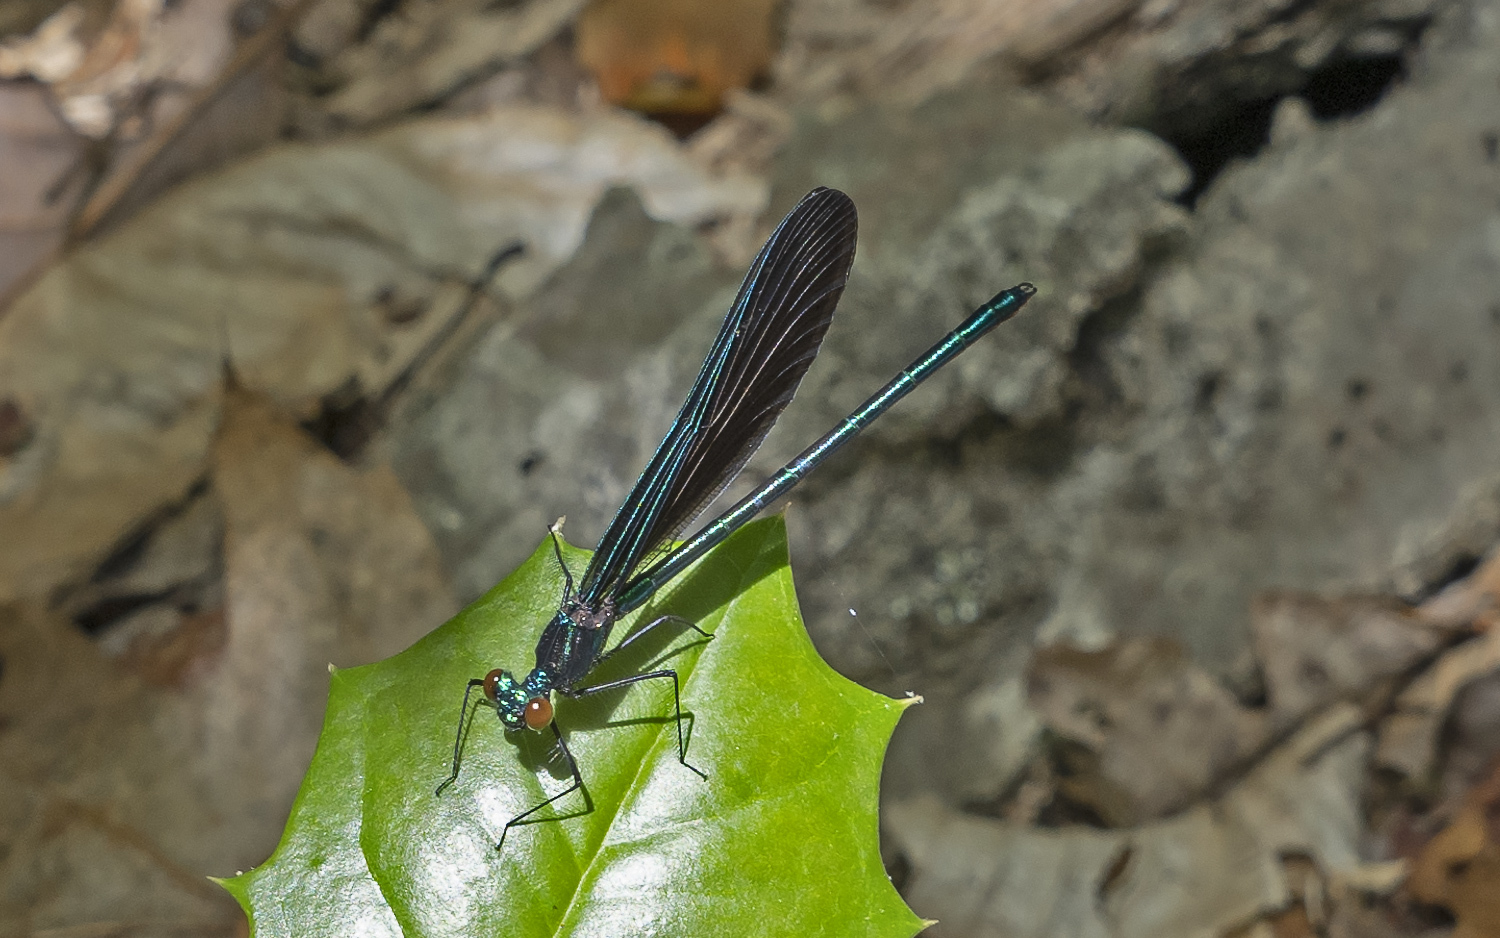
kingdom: Animalia
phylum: Arthropoda
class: Insecta
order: Odonata
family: Calopterygidae
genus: Calopteryx
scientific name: Calopteryx maculata
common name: Ebony jewelwing
